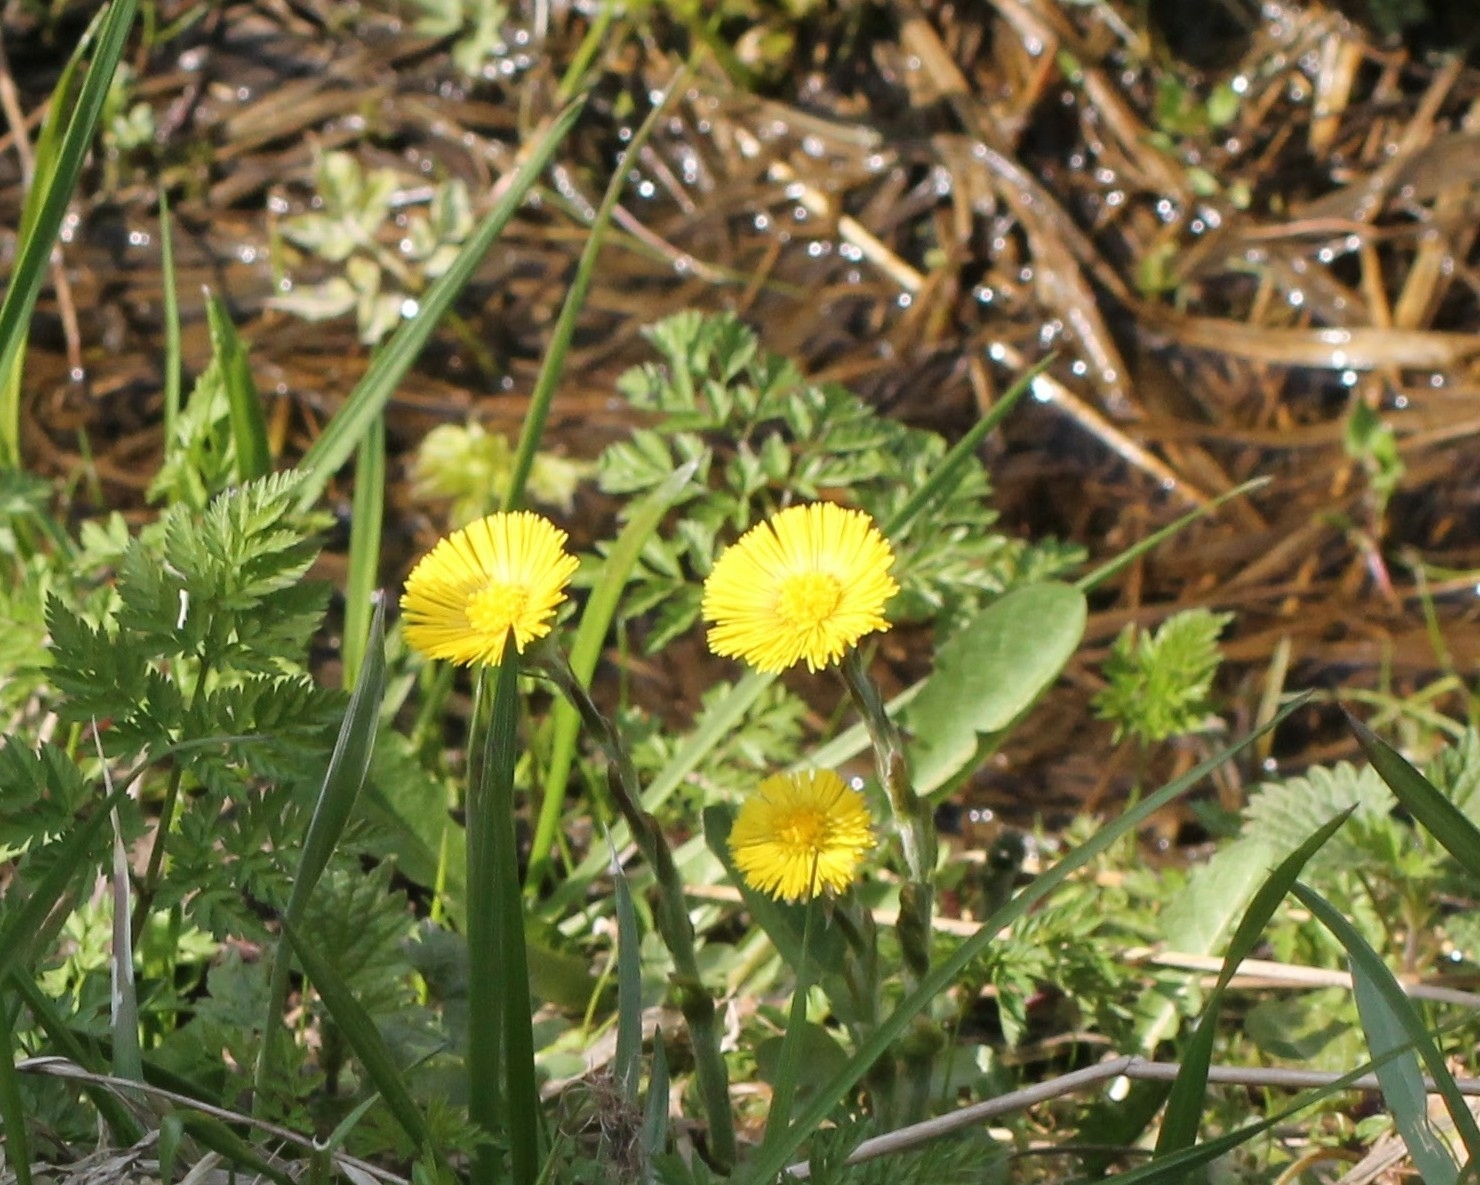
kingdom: Plantae
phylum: Tracheophyta
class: Magnoliopsida
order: Asterales
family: Asteraceae
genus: Tussilago
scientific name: Tussilago farfara
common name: Coltsfoot
